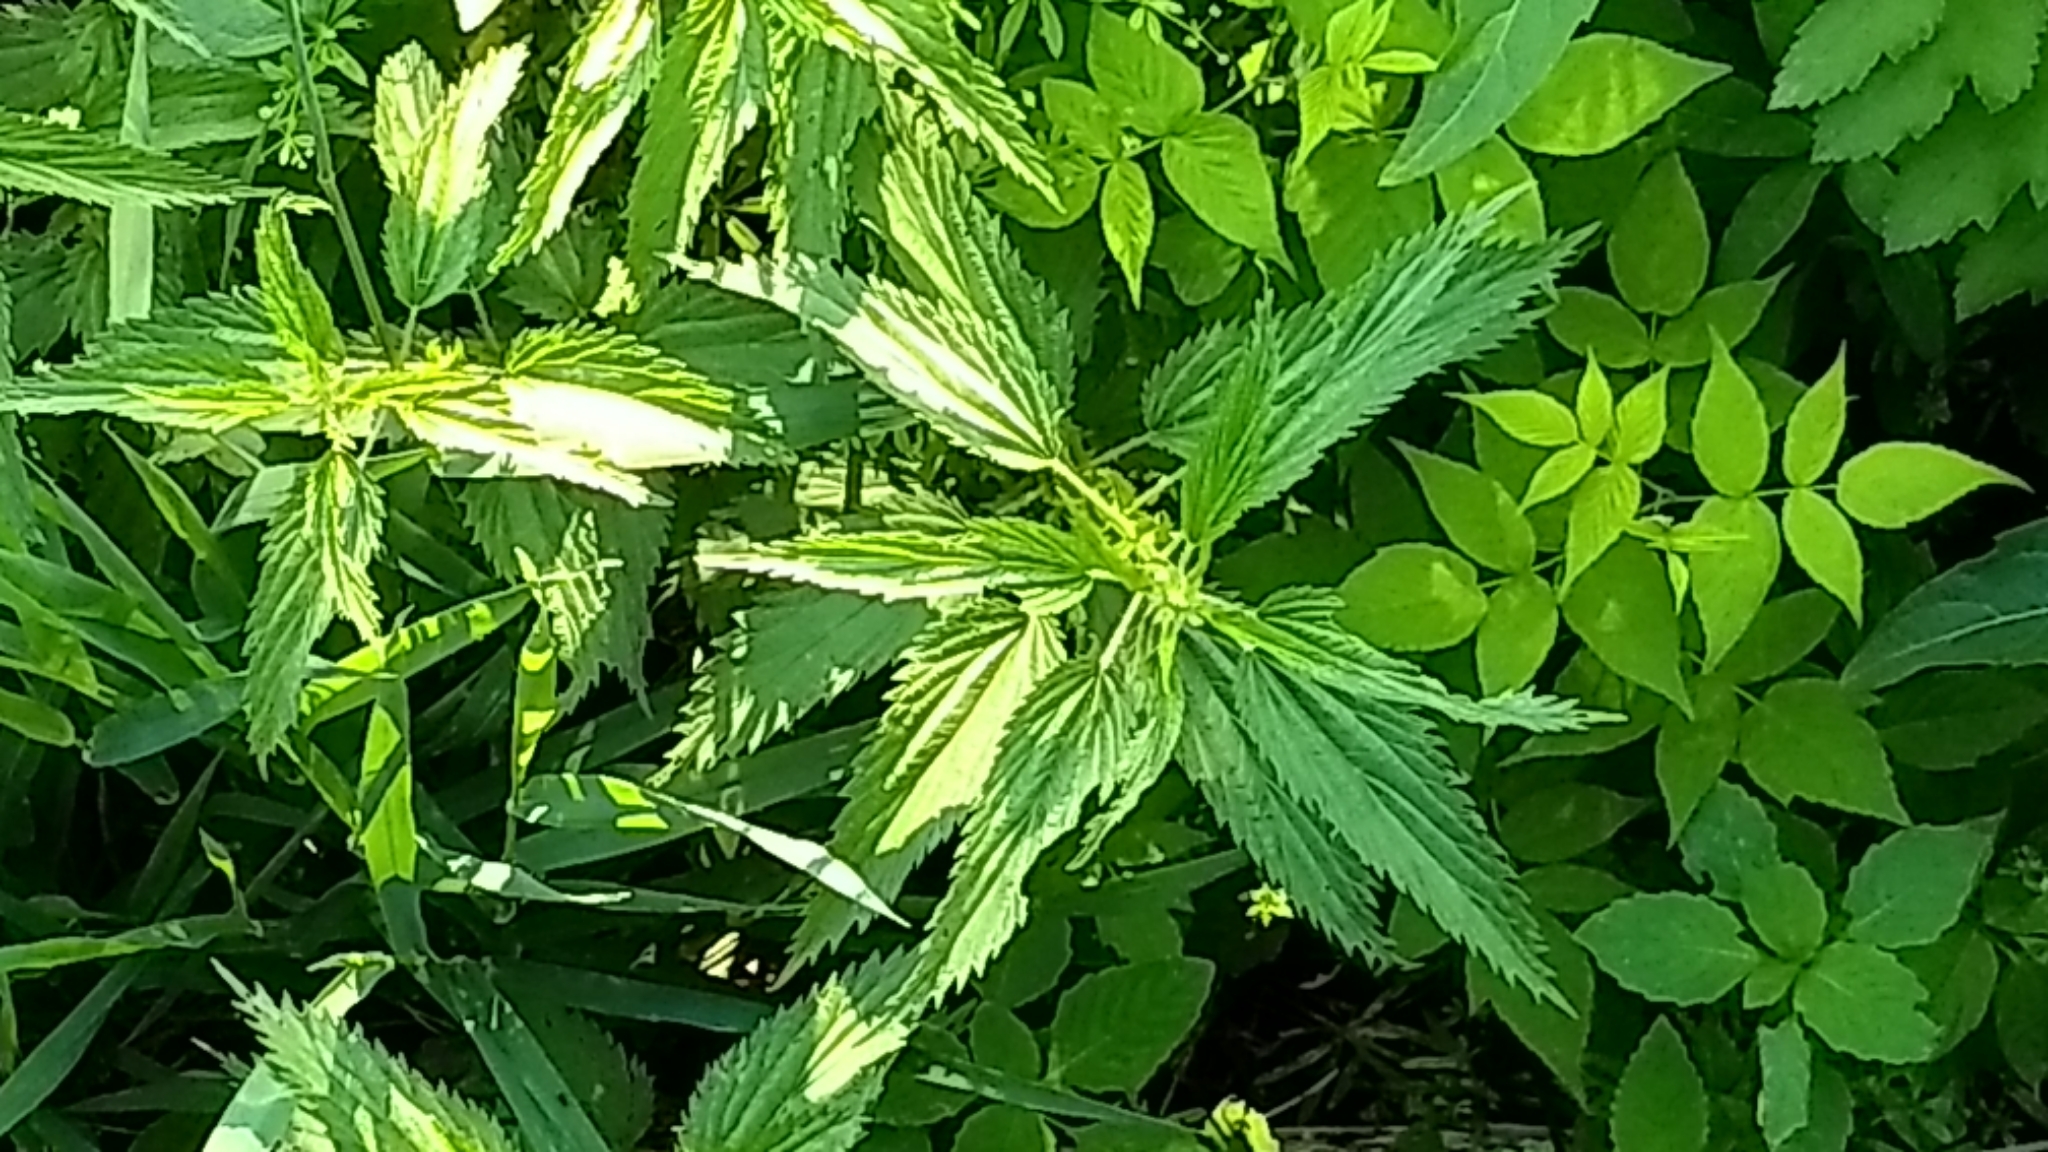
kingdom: Plantae
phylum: Tracheophyta
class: Magnoliopsida
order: Rosales
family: Urticaceae
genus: Urtica
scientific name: Urtica dioica
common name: Common nettle
